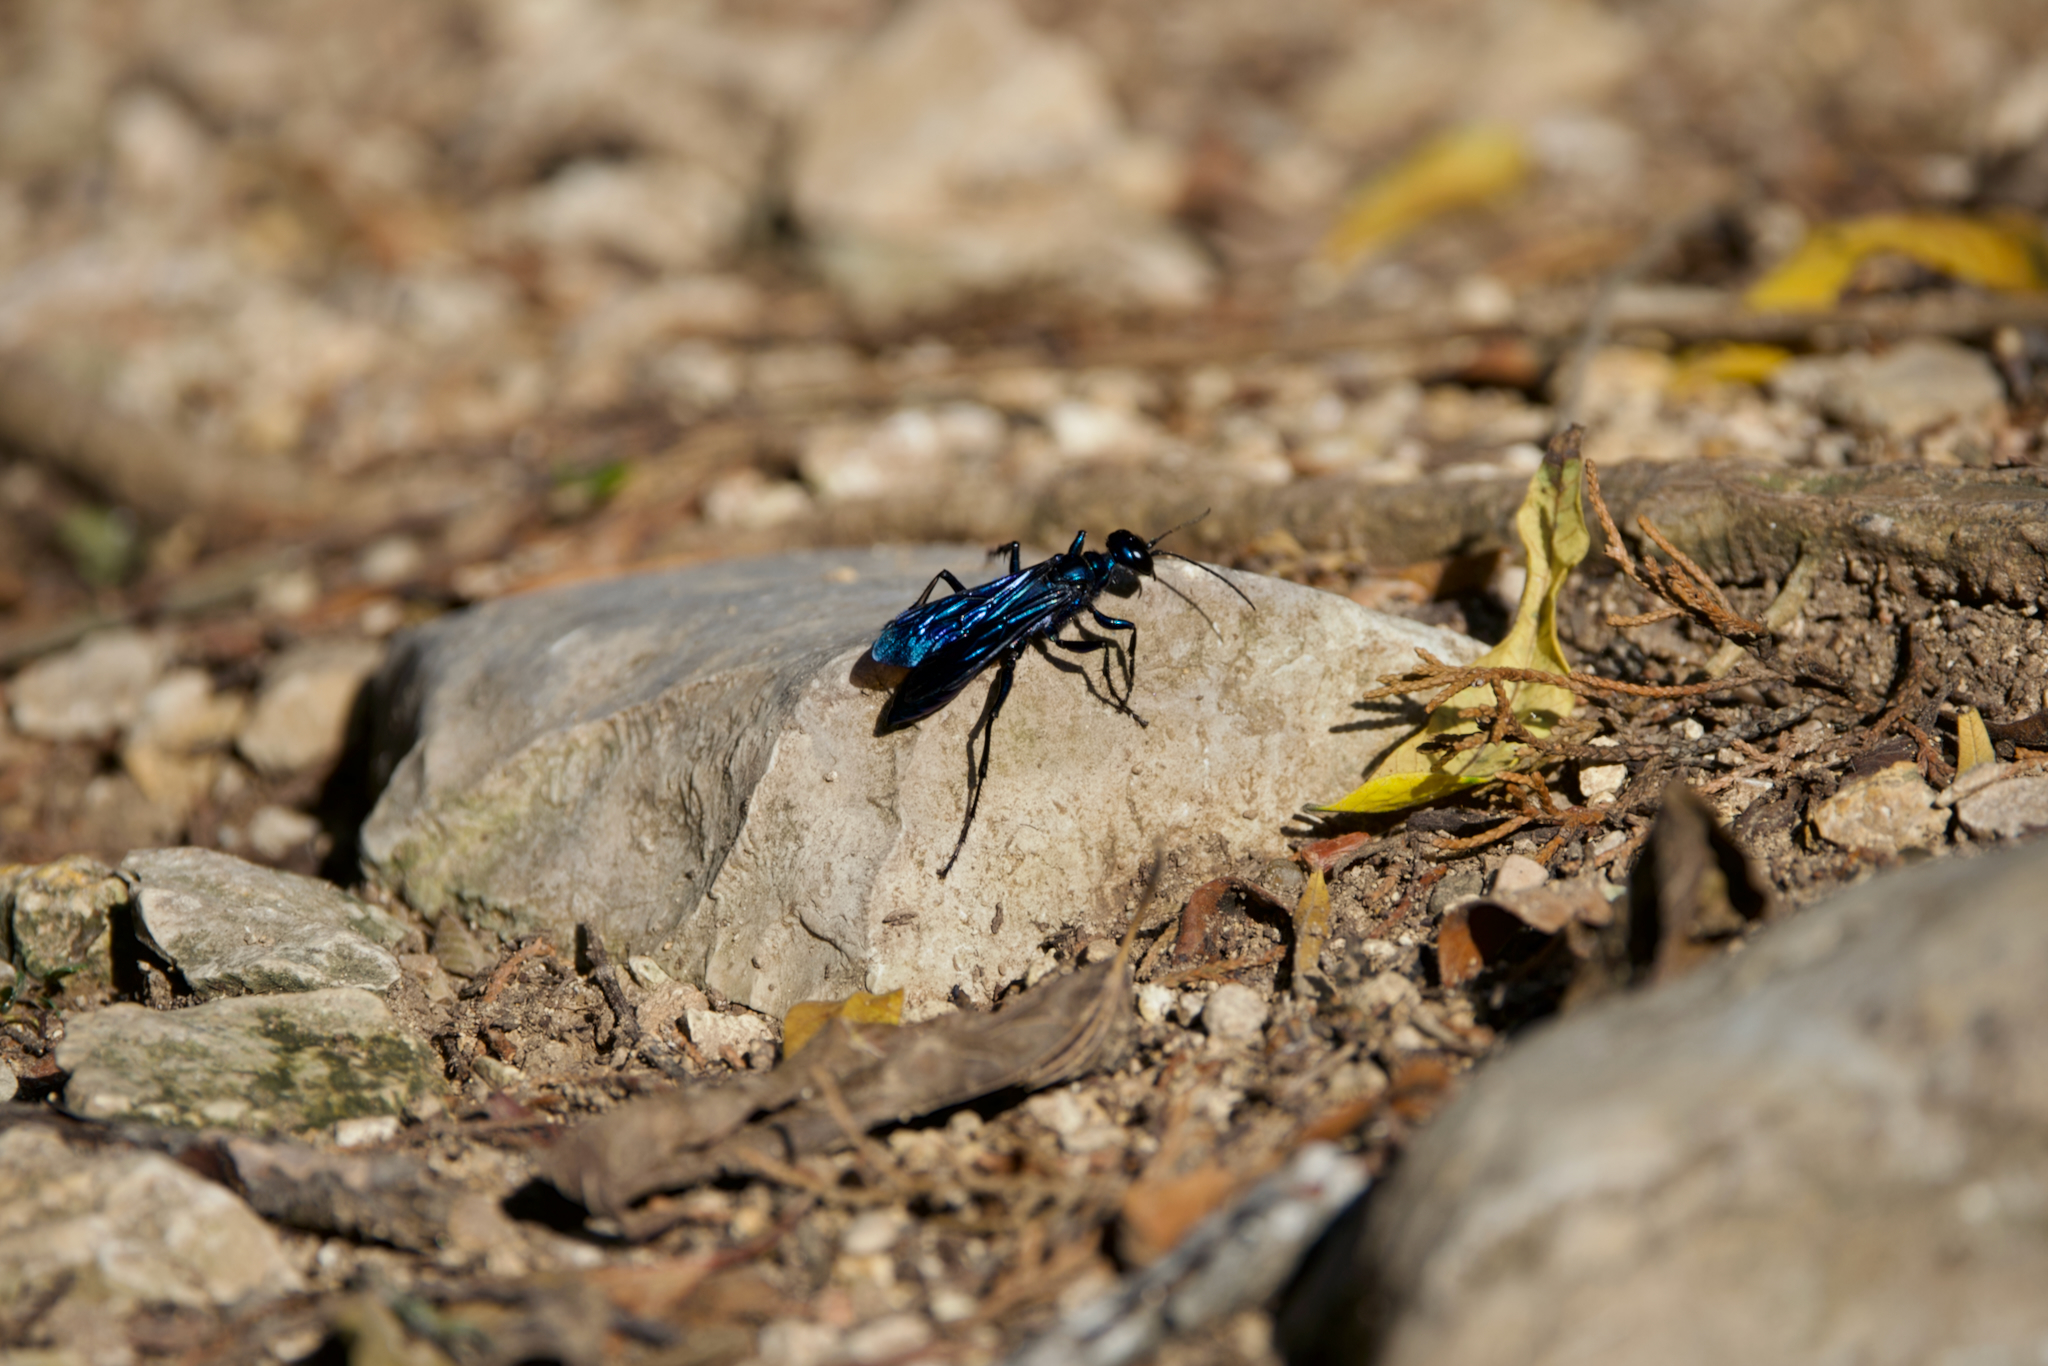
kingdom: Animalia
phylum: Arthropoda
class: Insecta
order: Hymenoptera
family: Sphecidae
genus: Chalybion
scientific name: Chalybion californicum
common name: Mud dauber
